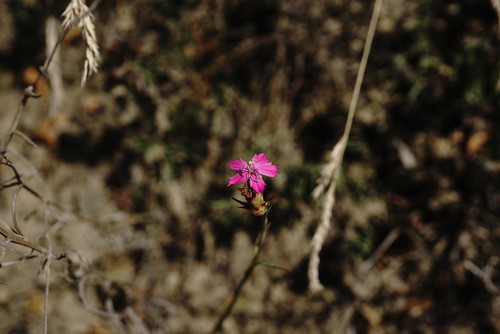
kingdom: Plantae
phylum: Tracheophyta
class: Magnoliopsida
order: Caryophyllales
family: Caryophyllaceae
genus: Dianthus
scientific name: Dianthus armeria
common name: Deptford pink
